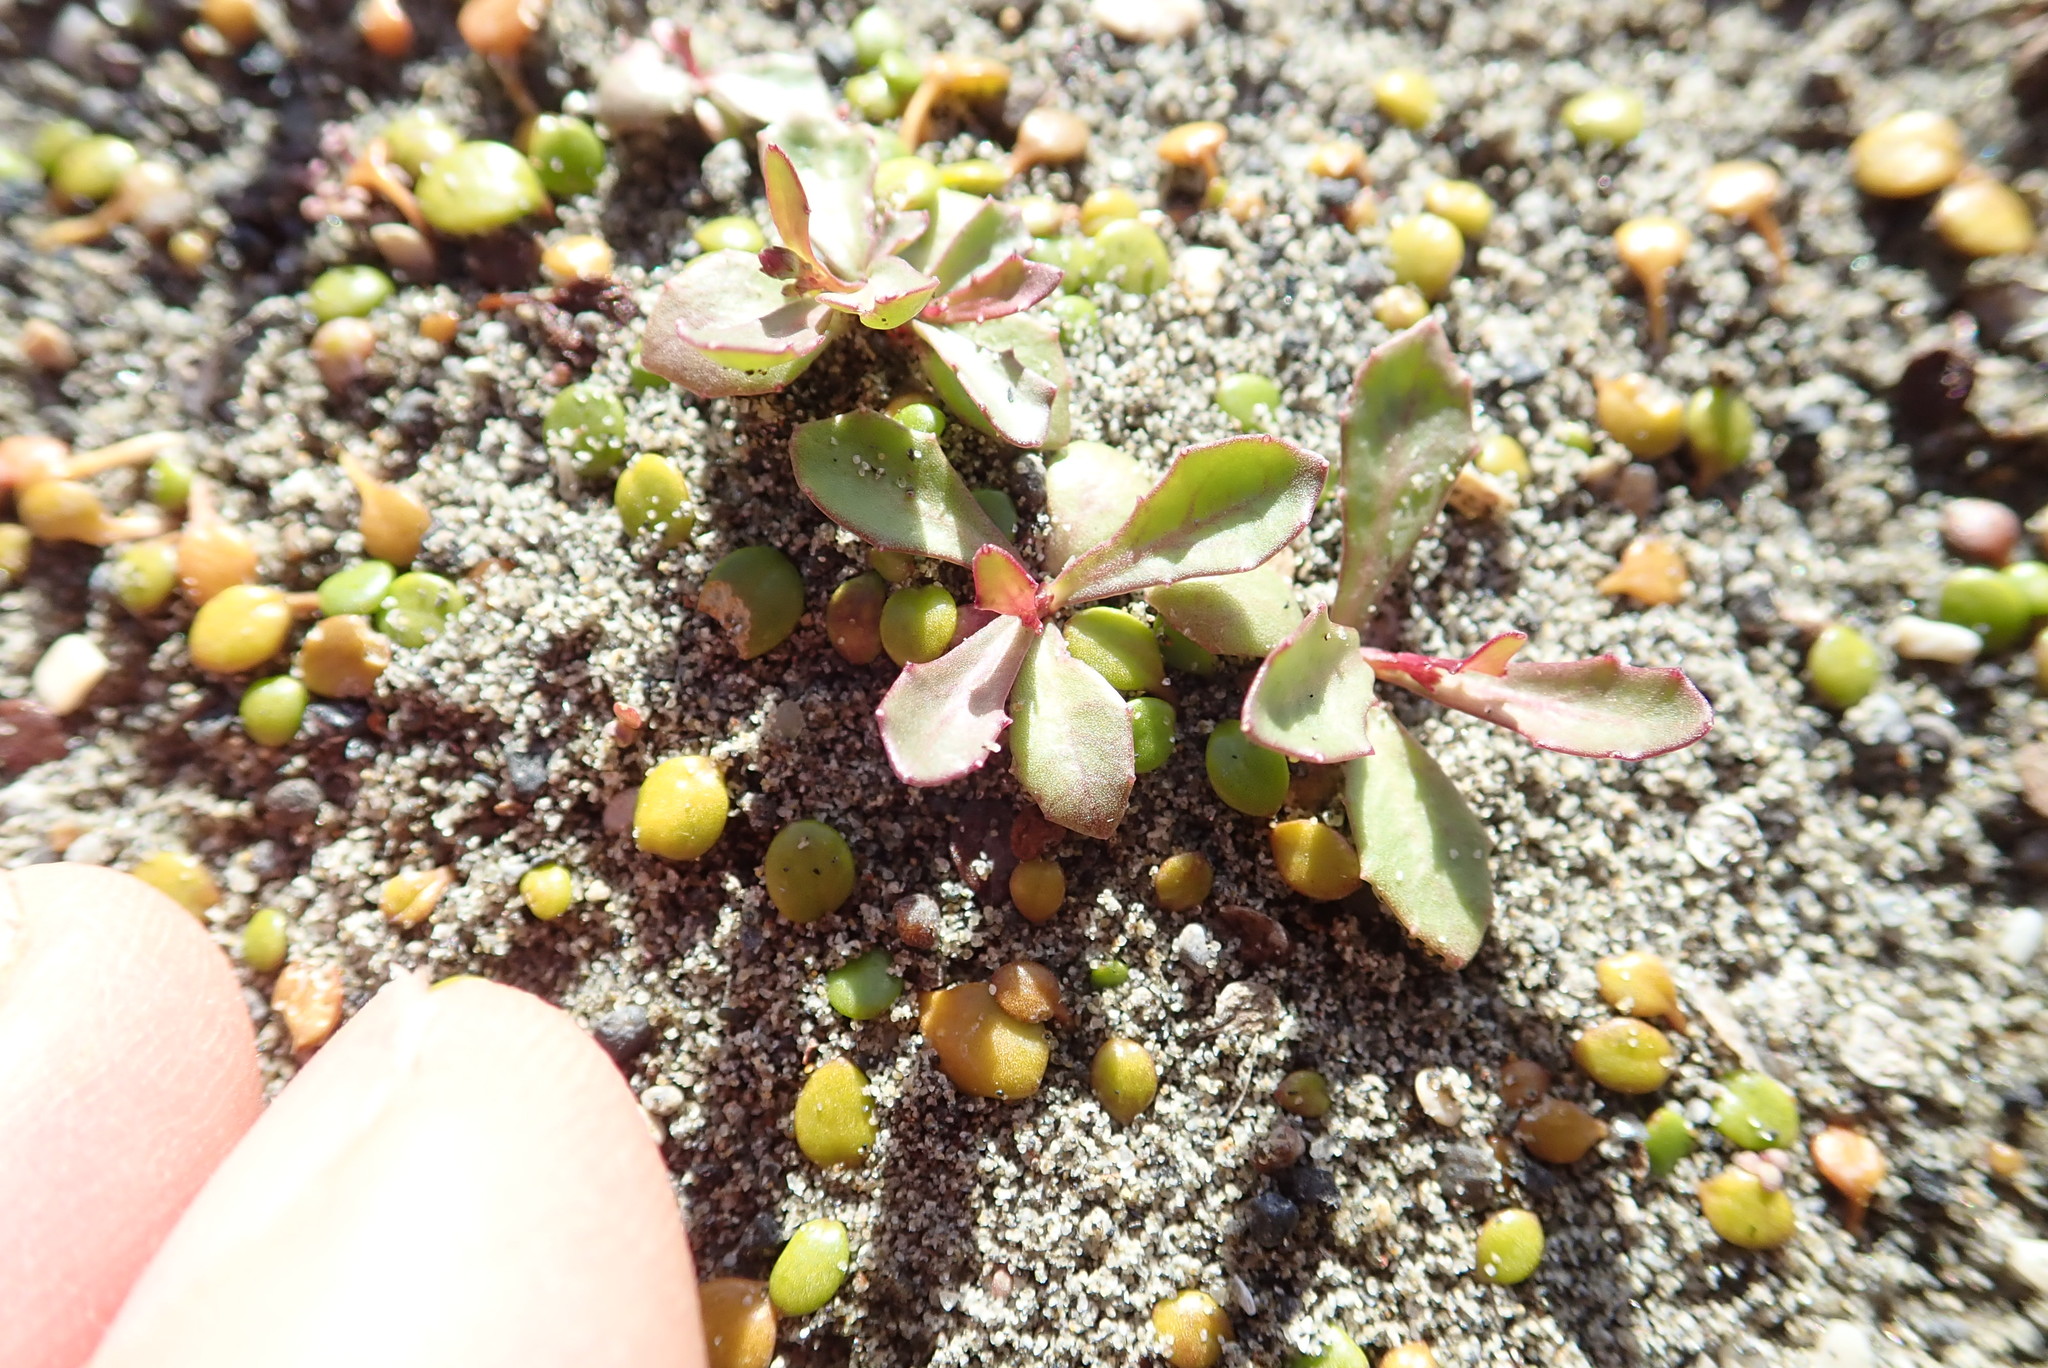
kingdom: Plantae
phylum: Tracheophyta
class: Magnoliopsida
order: Asterales
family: Campanulaceae
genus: Lobelia
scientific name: Lobelia anceps
